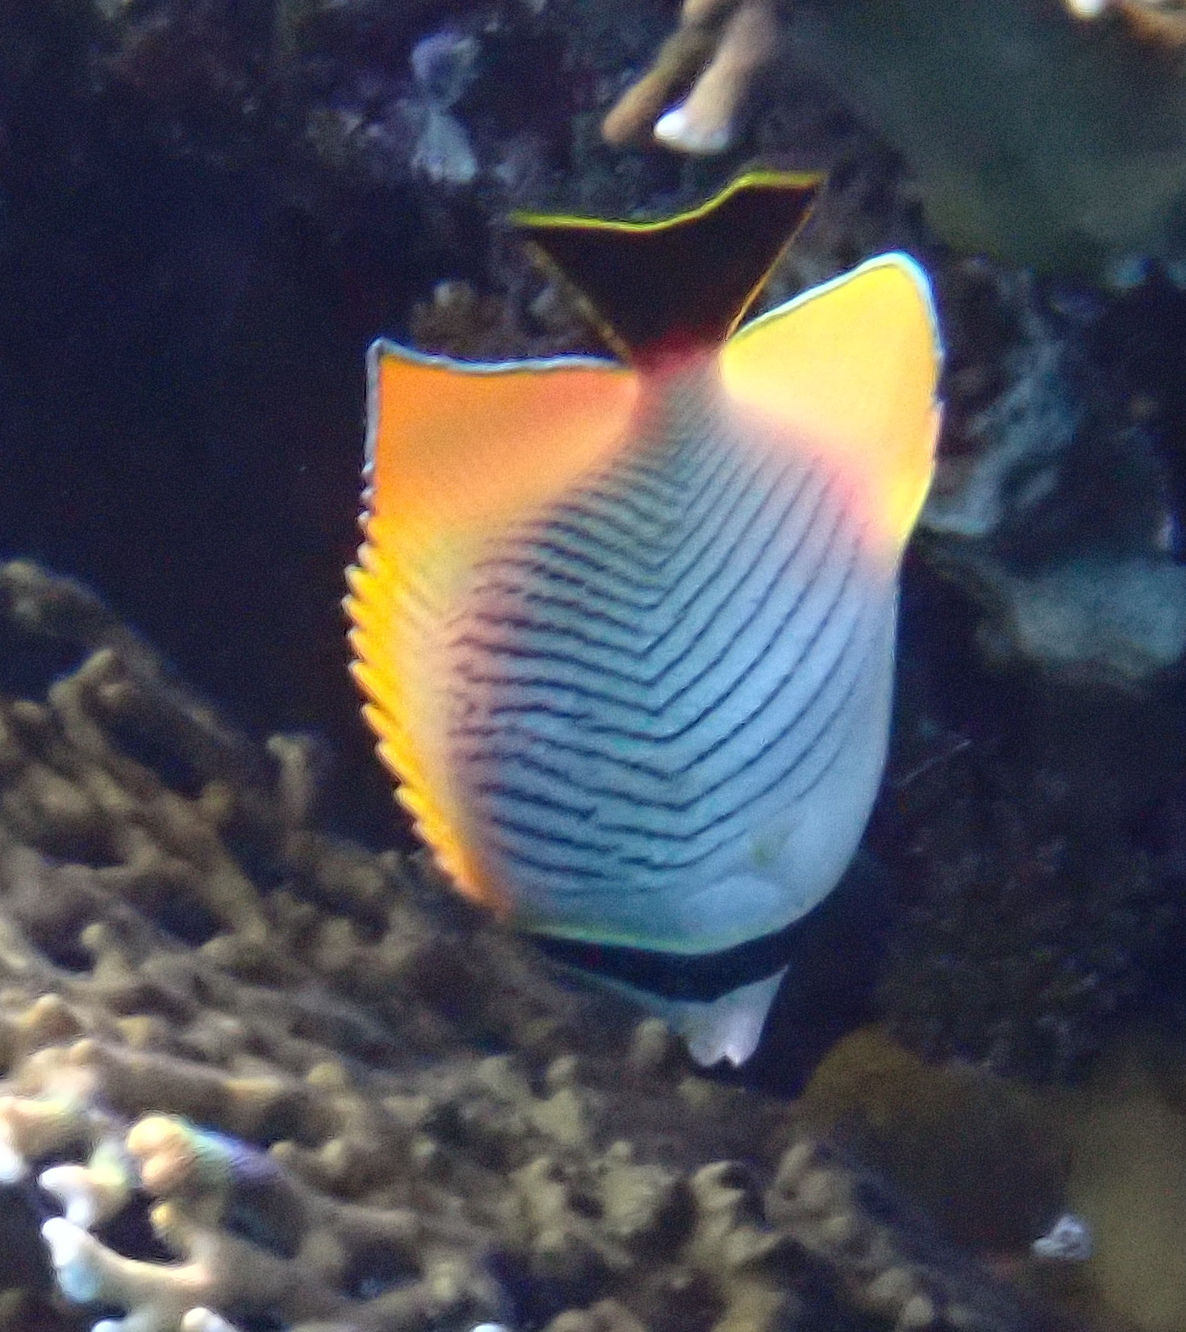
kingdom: Animalia
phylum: Chordata
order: Perciformes
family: Chaetodontidae
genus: Chaetodon
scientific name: Chaetodon trifascialis
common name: Chevroned butterflyfish
